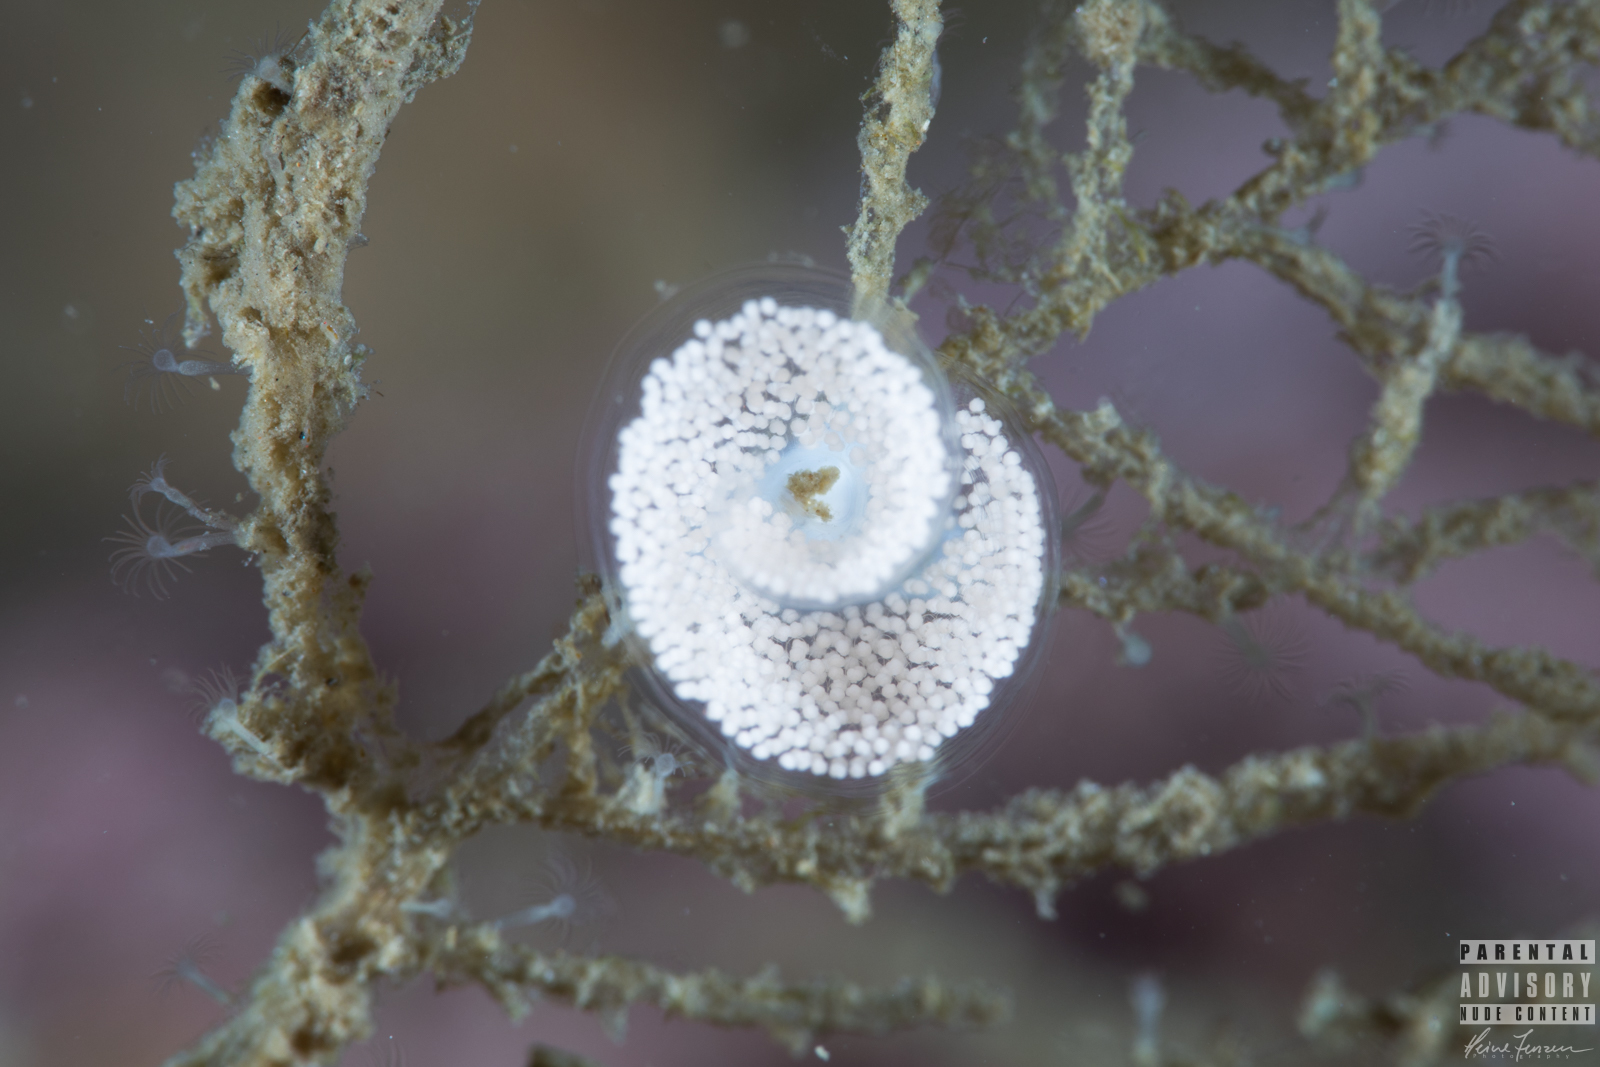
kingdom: Animalia
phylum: Mollusca
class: Gastropoda
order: Nudibranchia
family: Eubranchidae
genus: Eubranchus
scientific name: Eubranchus tricolor
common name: Painted balloon aeolis
